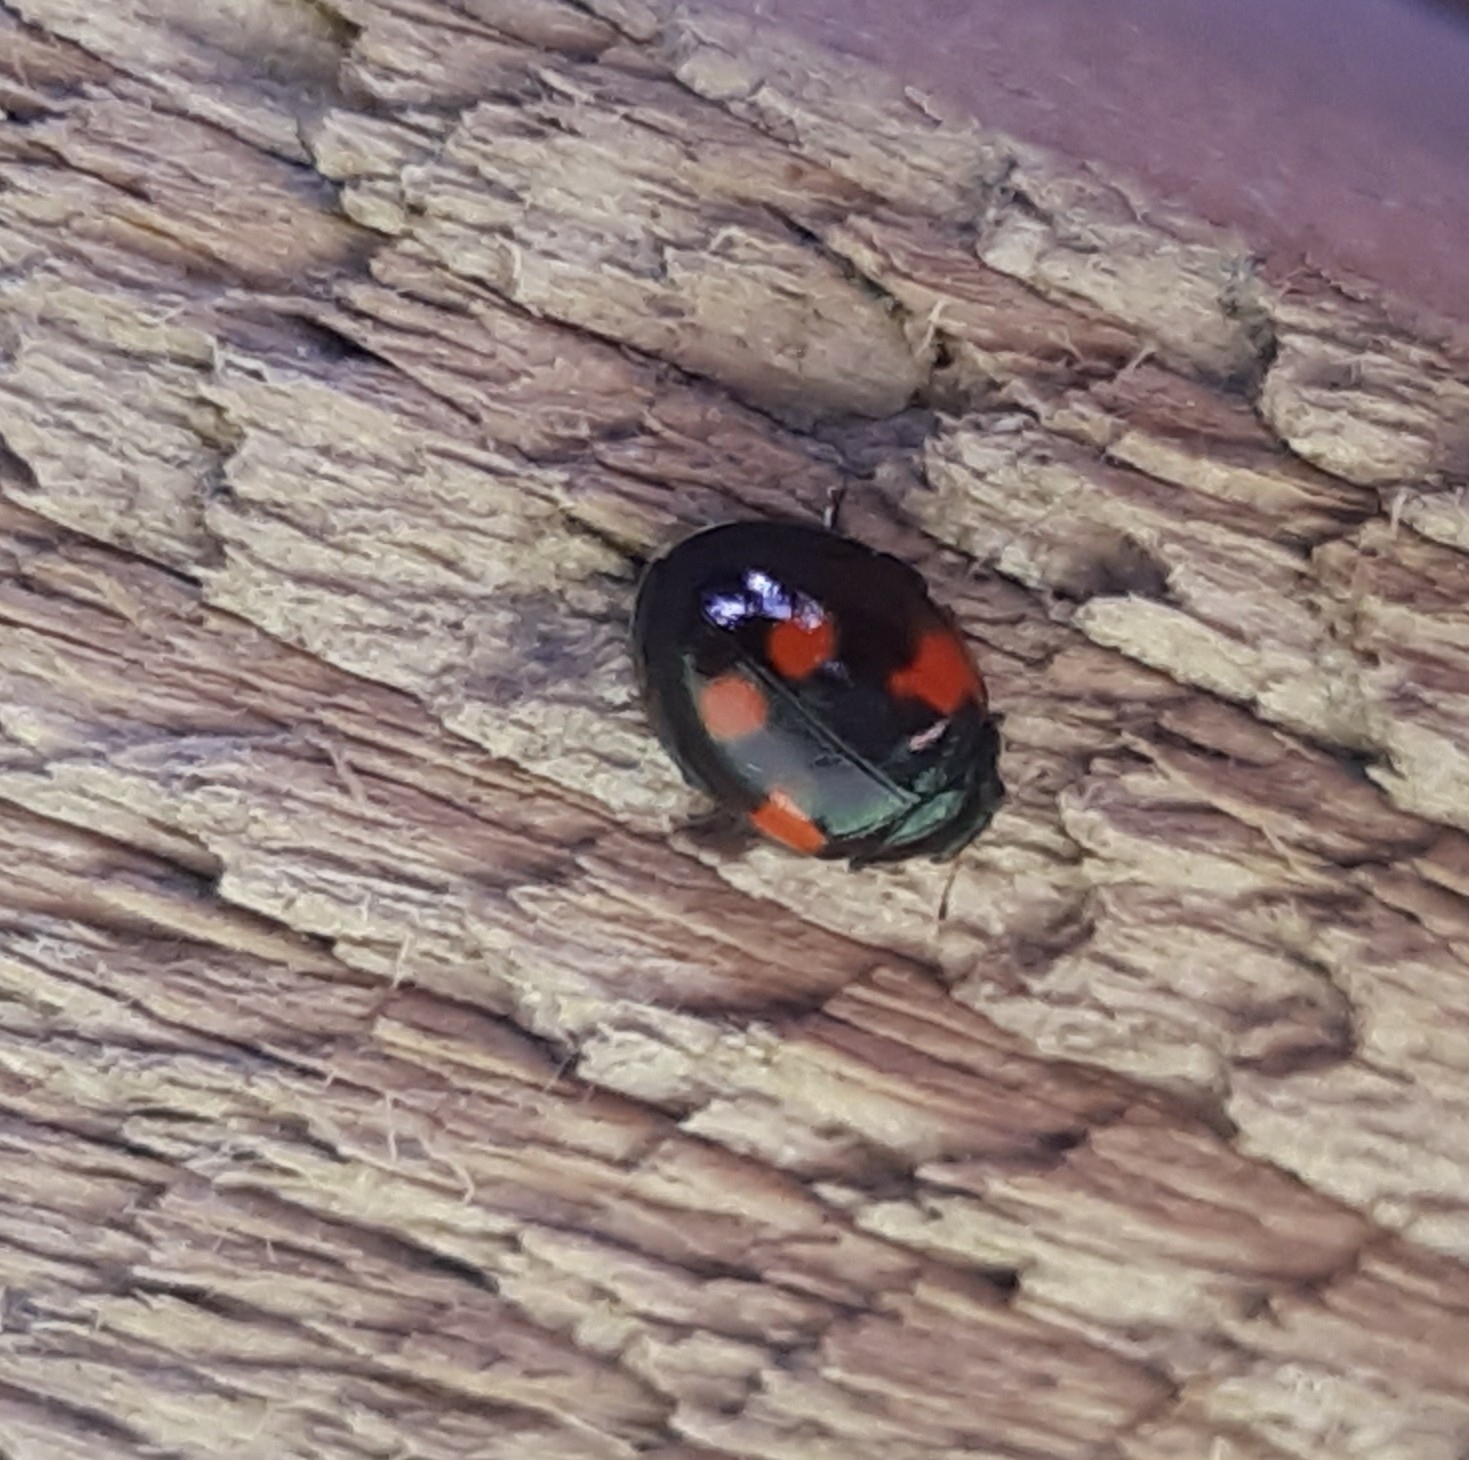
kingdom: Animalia
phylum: Arthropoda
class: Insecta
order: Coleoptera
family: Coccinellidae
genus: Adalia
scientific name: Adalia bipunctata
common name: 2-spot ladybird
